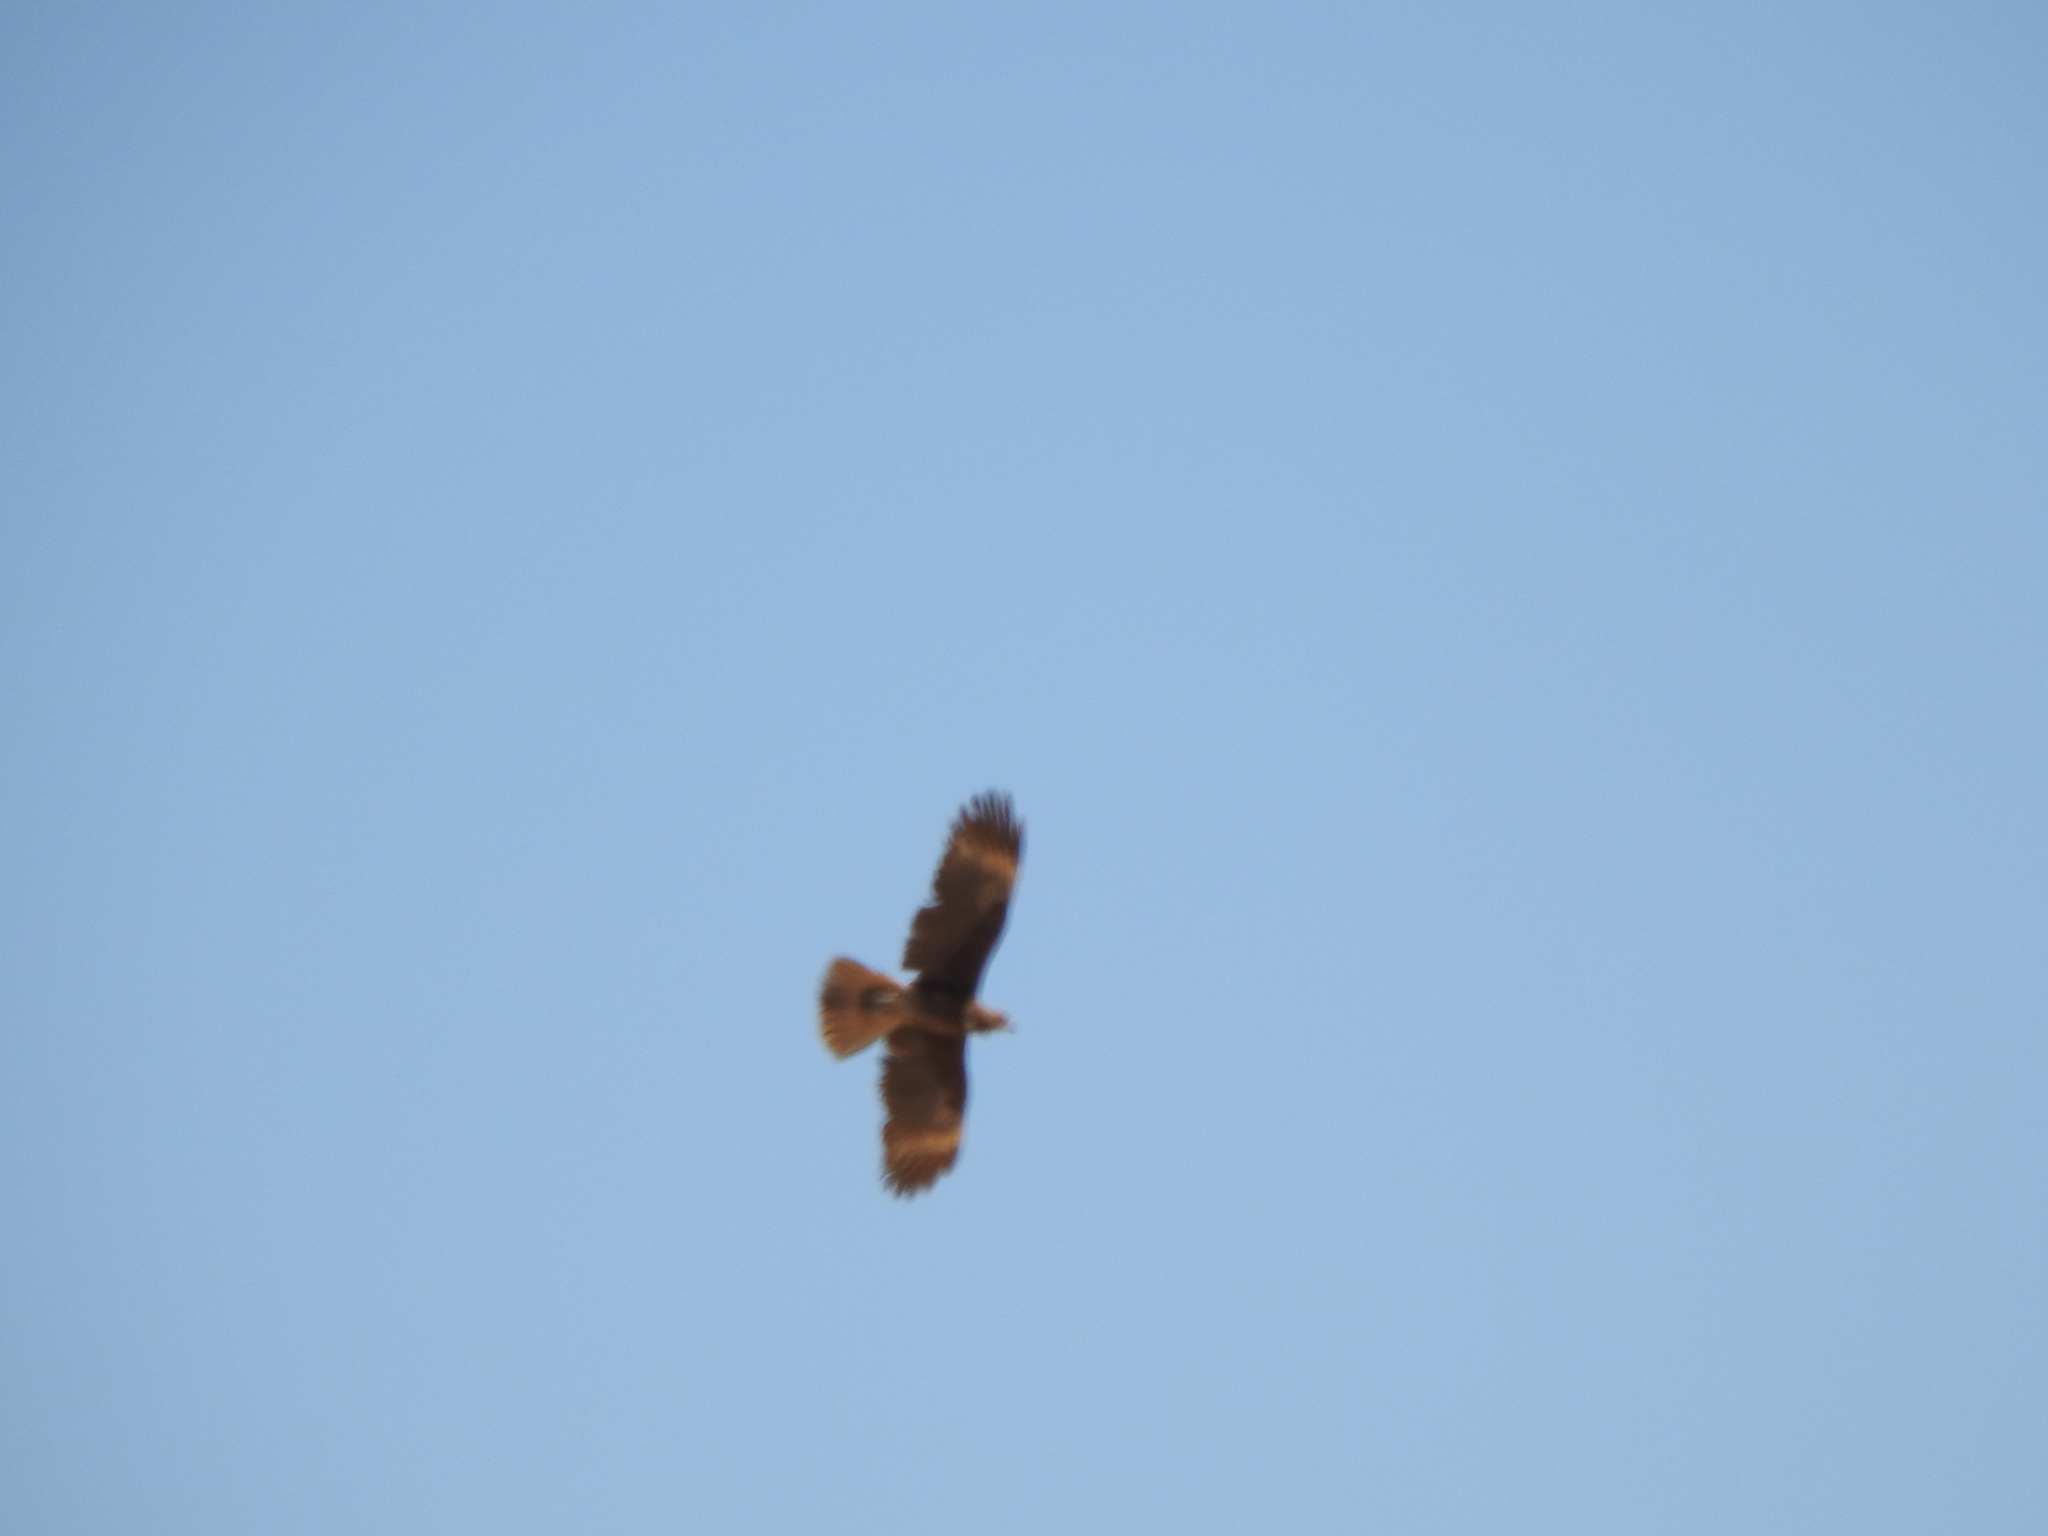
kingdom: Animalia
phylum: Chordata
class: Aves
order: Falconiformes
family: Falconidae
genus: Daptrius
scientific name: Daptrius
